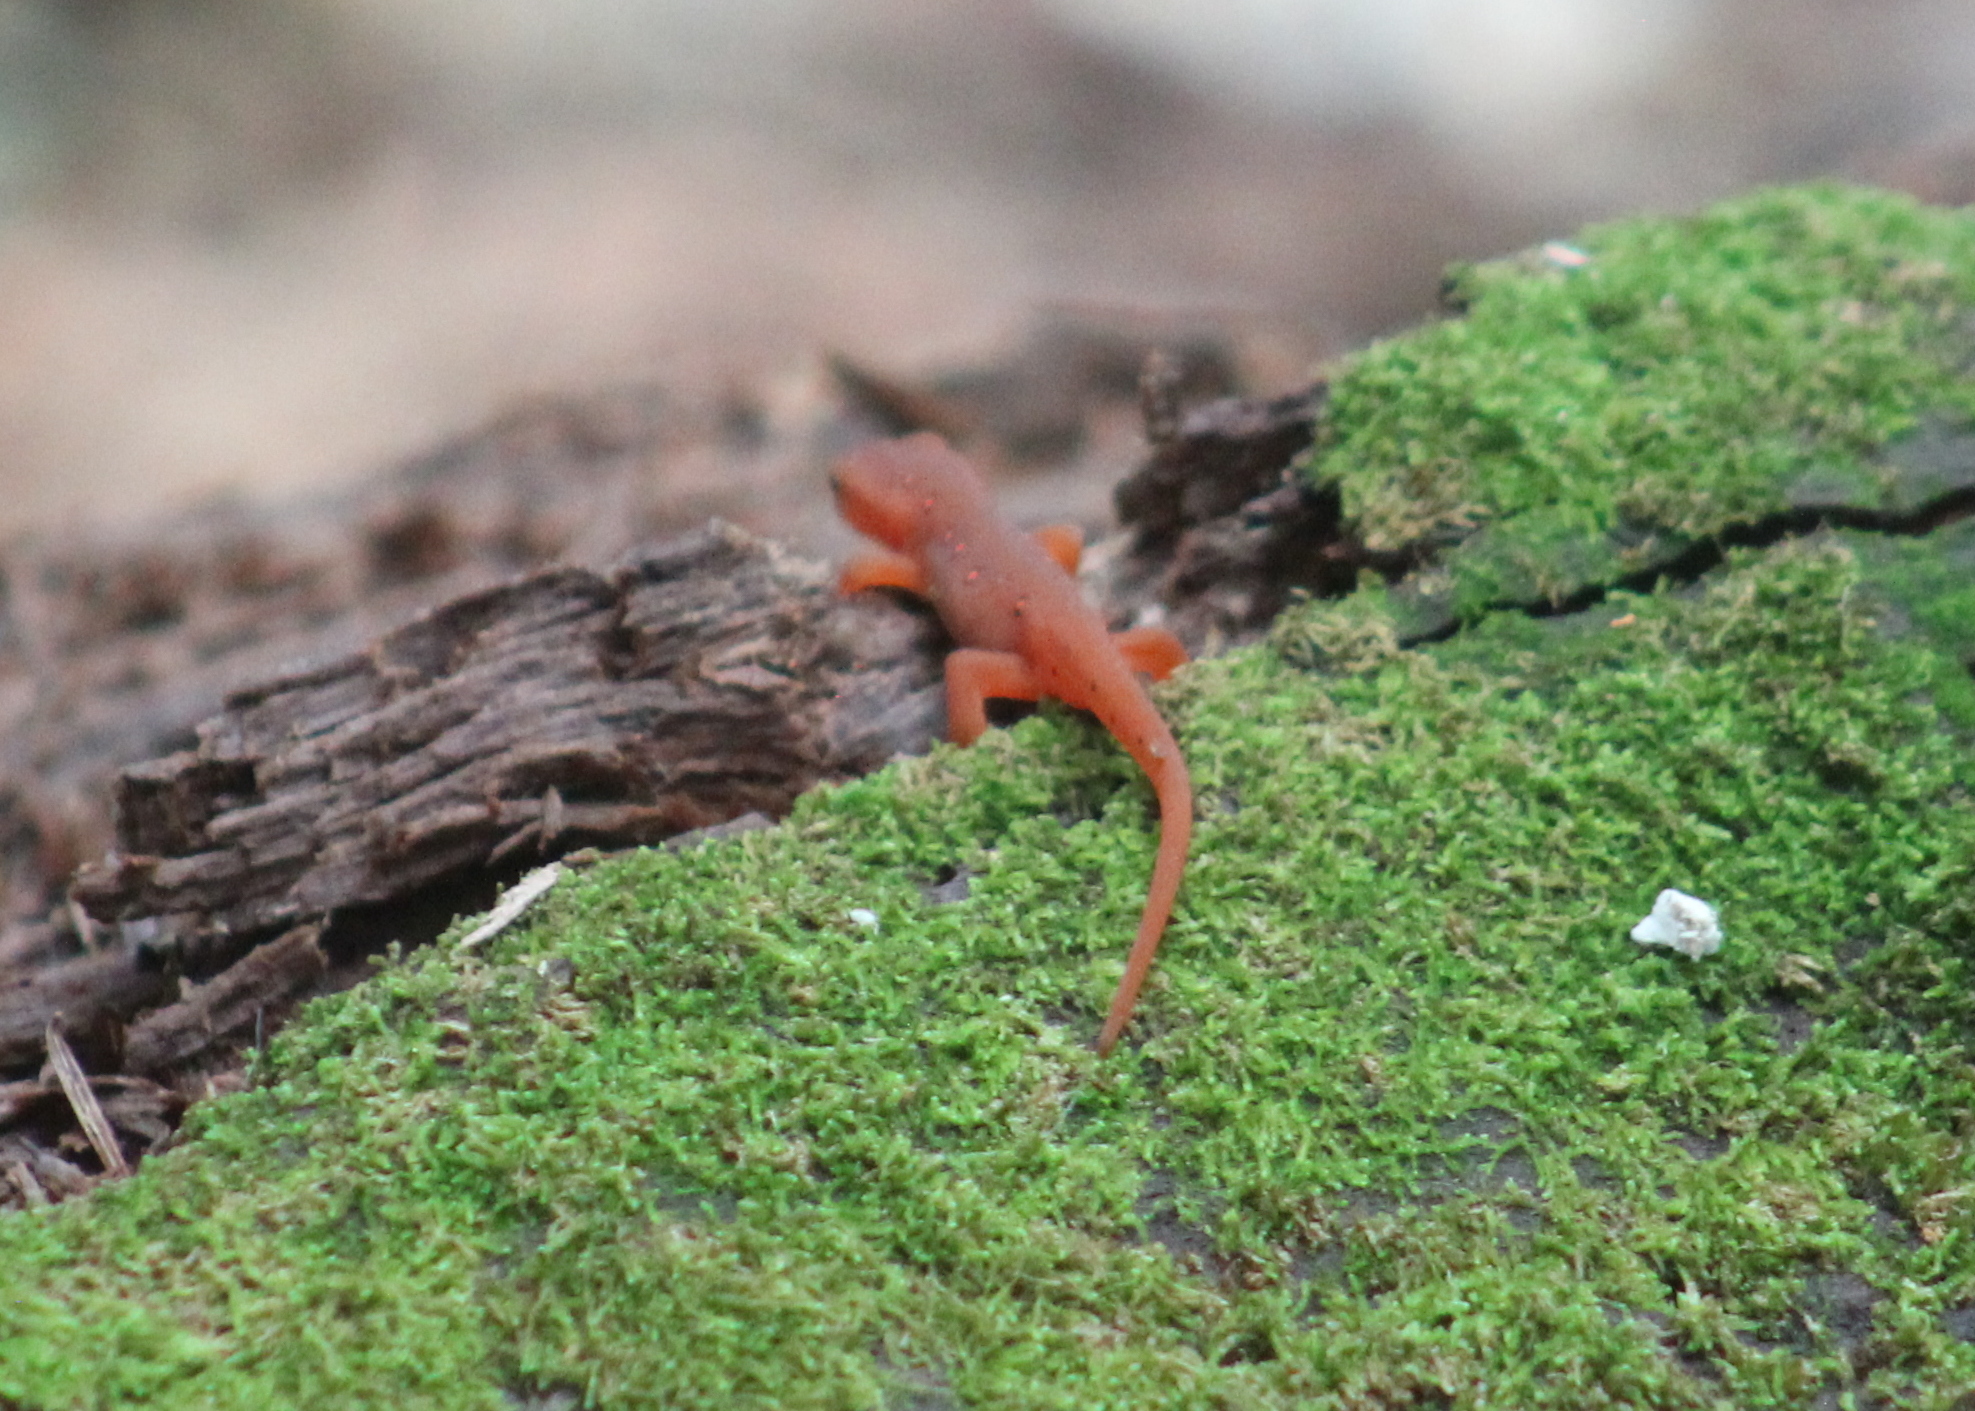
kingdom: Animalia
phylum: Chordata
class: Amphibia
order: Caudata
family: Salamandridae
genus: Notophthalmus
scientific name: Notophthalmus viridescens
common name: Eastern newt
